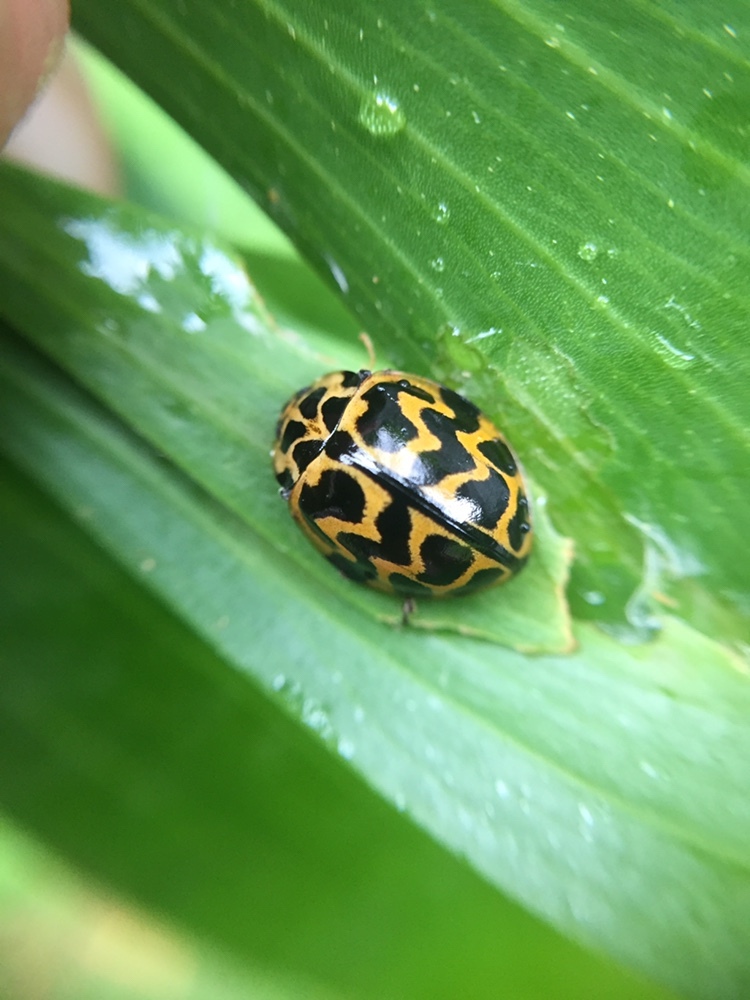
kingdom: Animalia
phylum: Arthropoda
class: Insecta
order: Coleoptera
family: Coccinellidae
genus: Cleobora
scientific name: Cleobora
